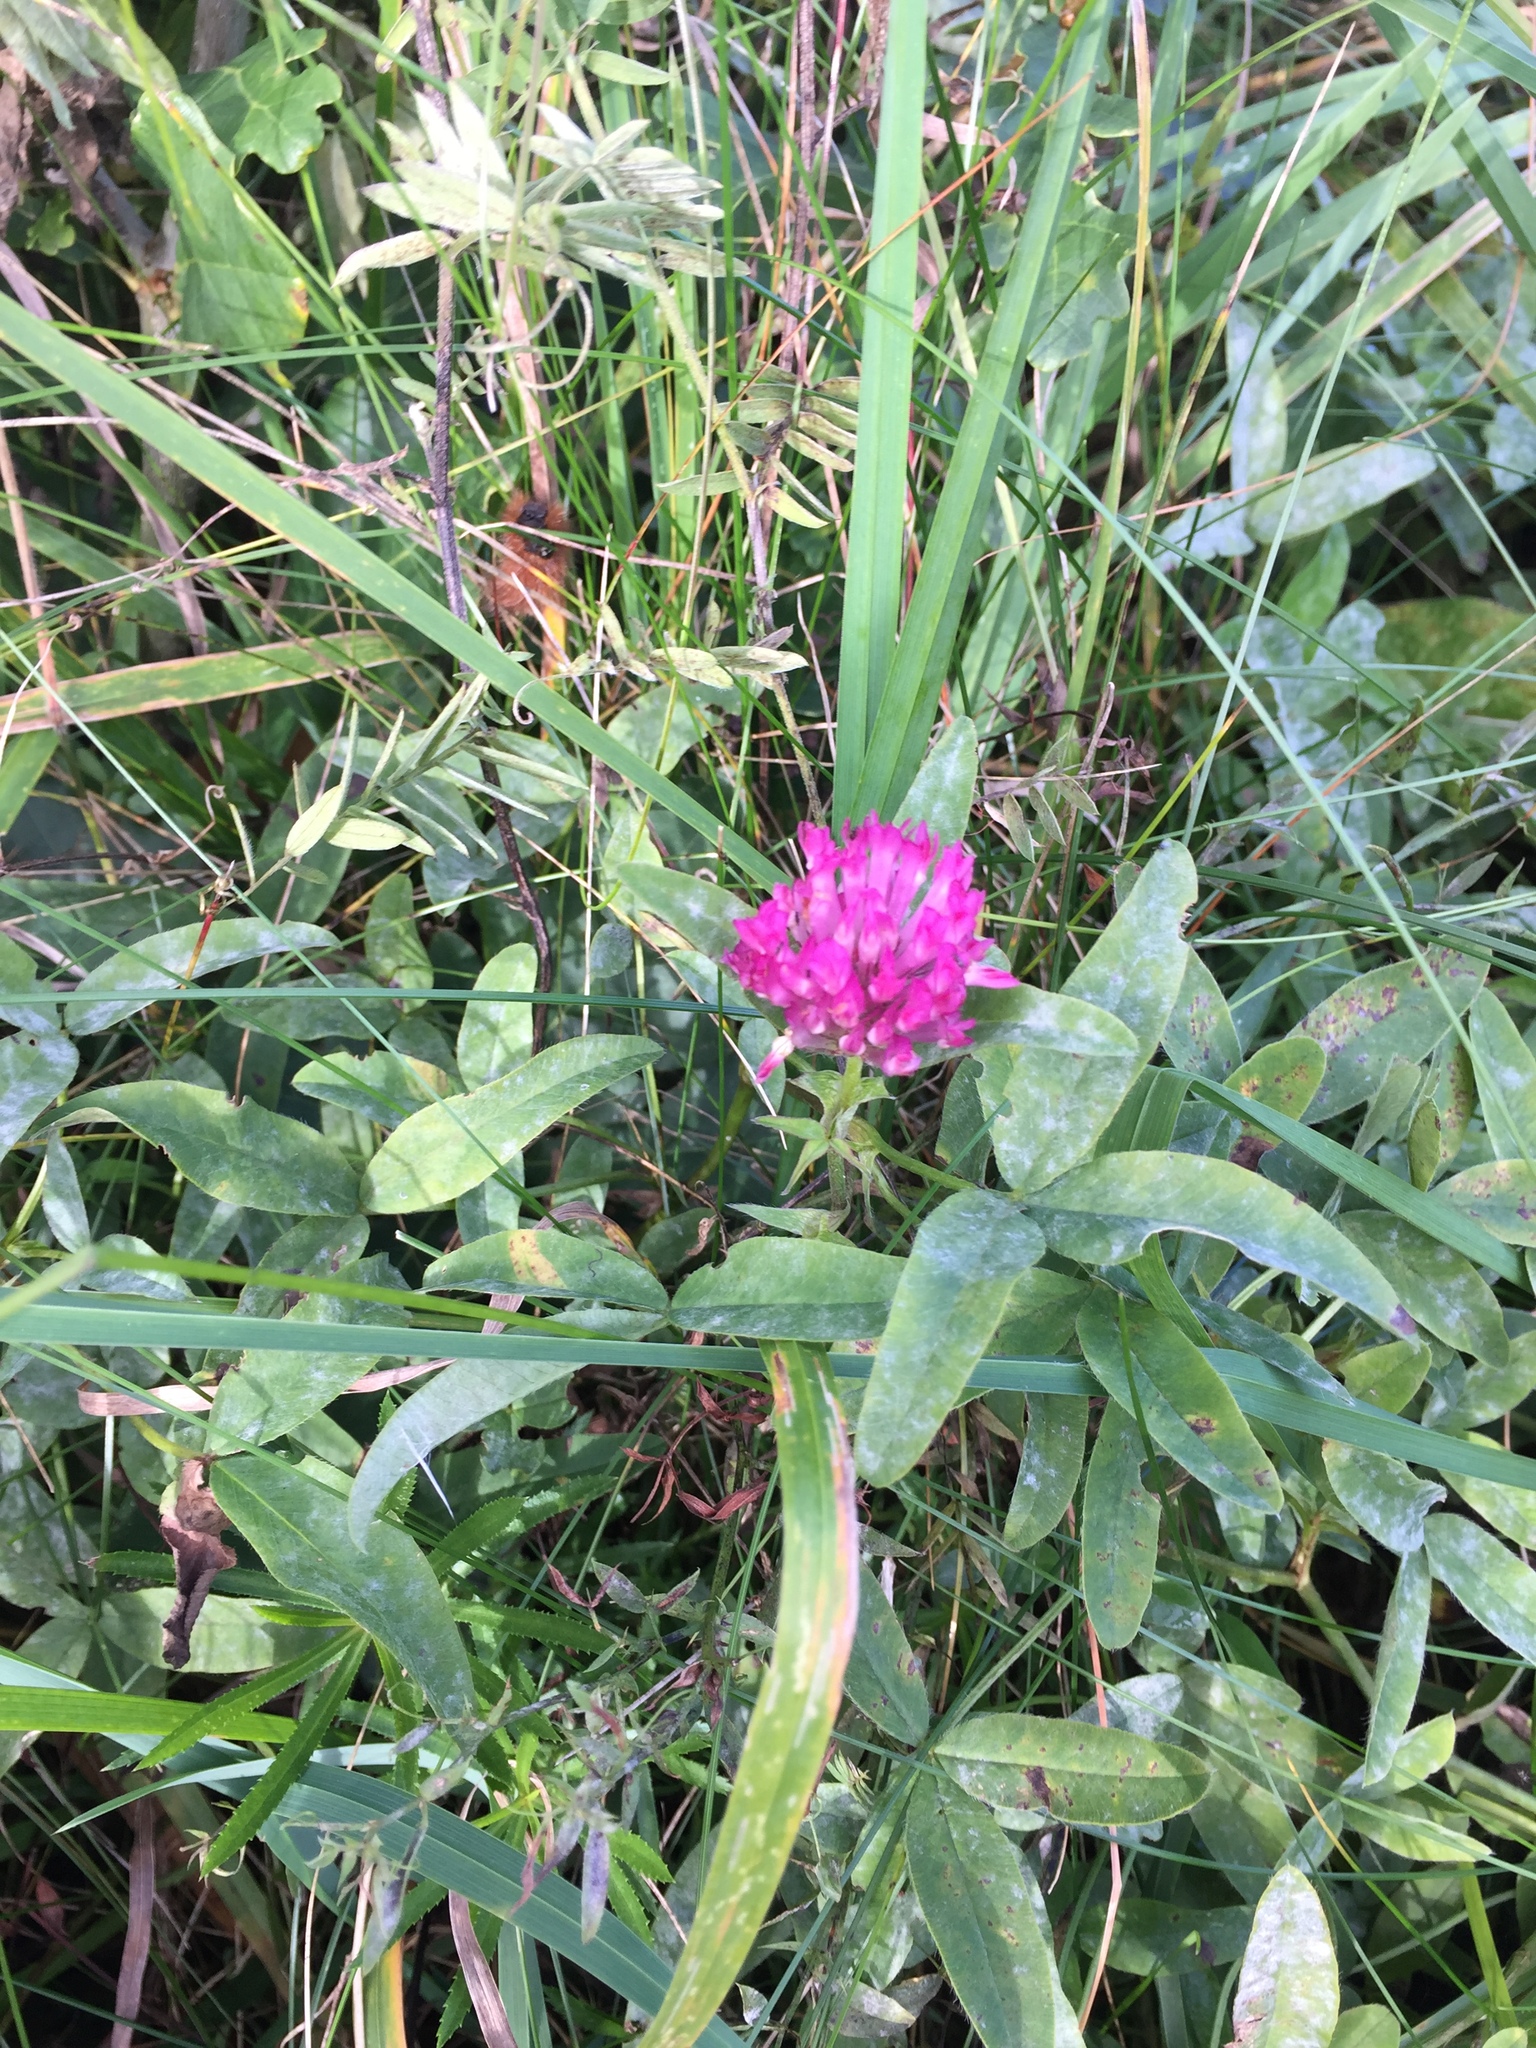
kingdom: Plantae
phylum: Tracheophyta
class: Magnoliopsida
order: Fabales
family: Fabaceae
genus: Trifolium
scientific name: Trifolium pratense
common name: Red clover
